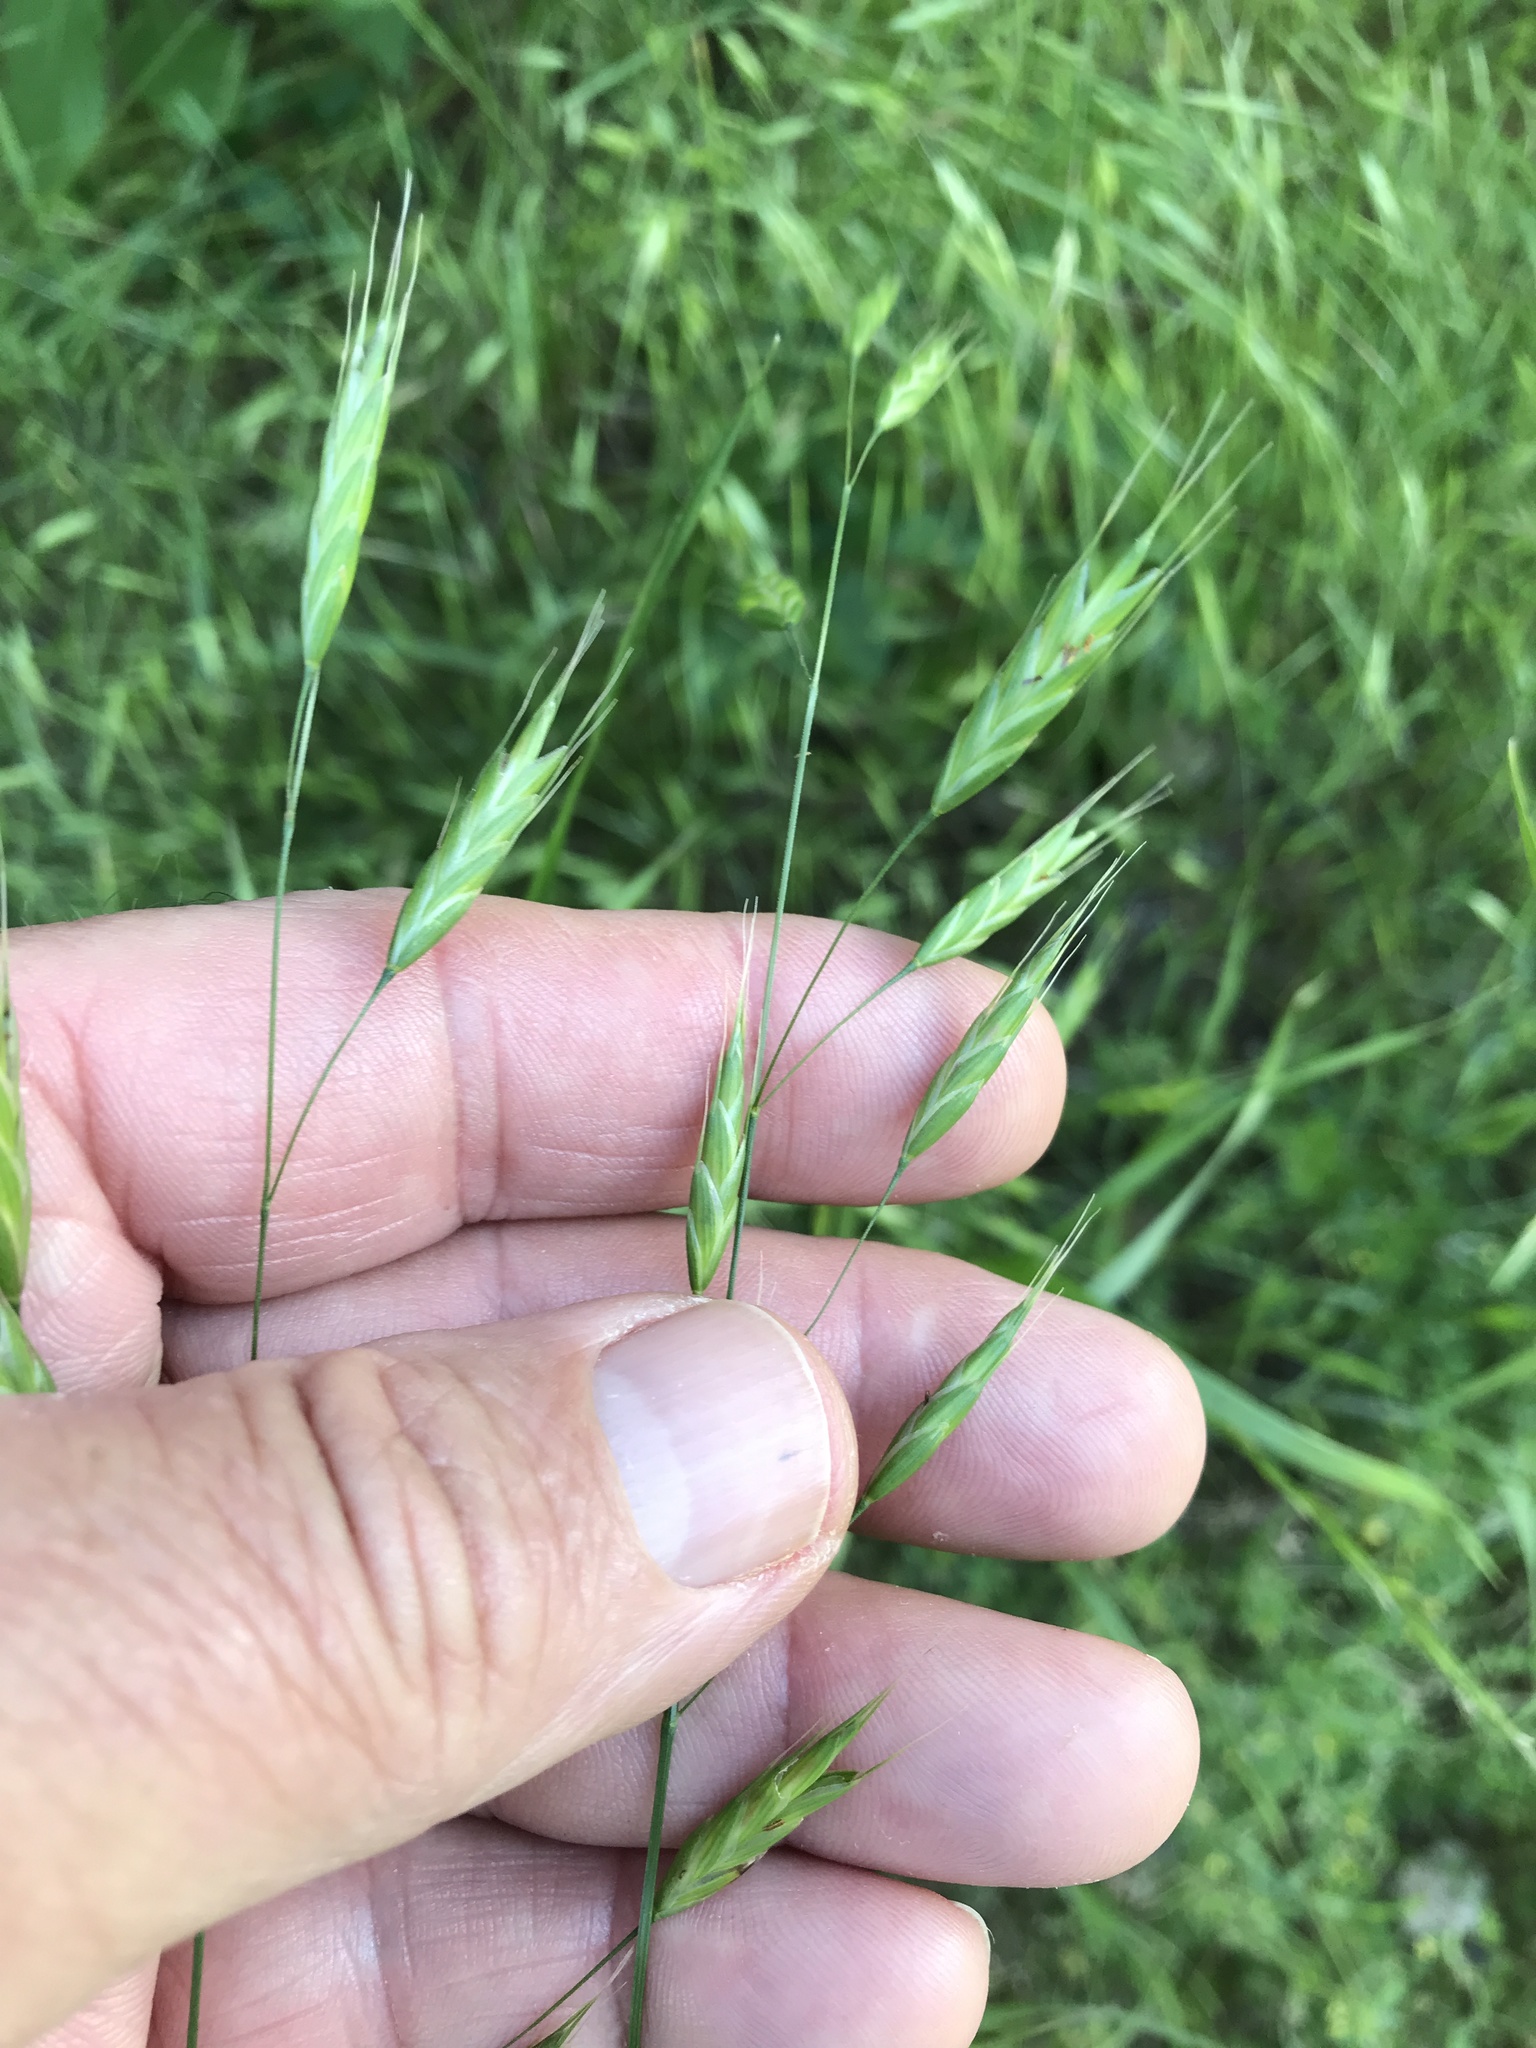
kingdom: Plantae
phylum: Tracheophyta
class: Liliopsida
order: Poales
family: Poaceae
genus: Bromus
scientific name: Bromus japonicus
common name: Japanese brome
